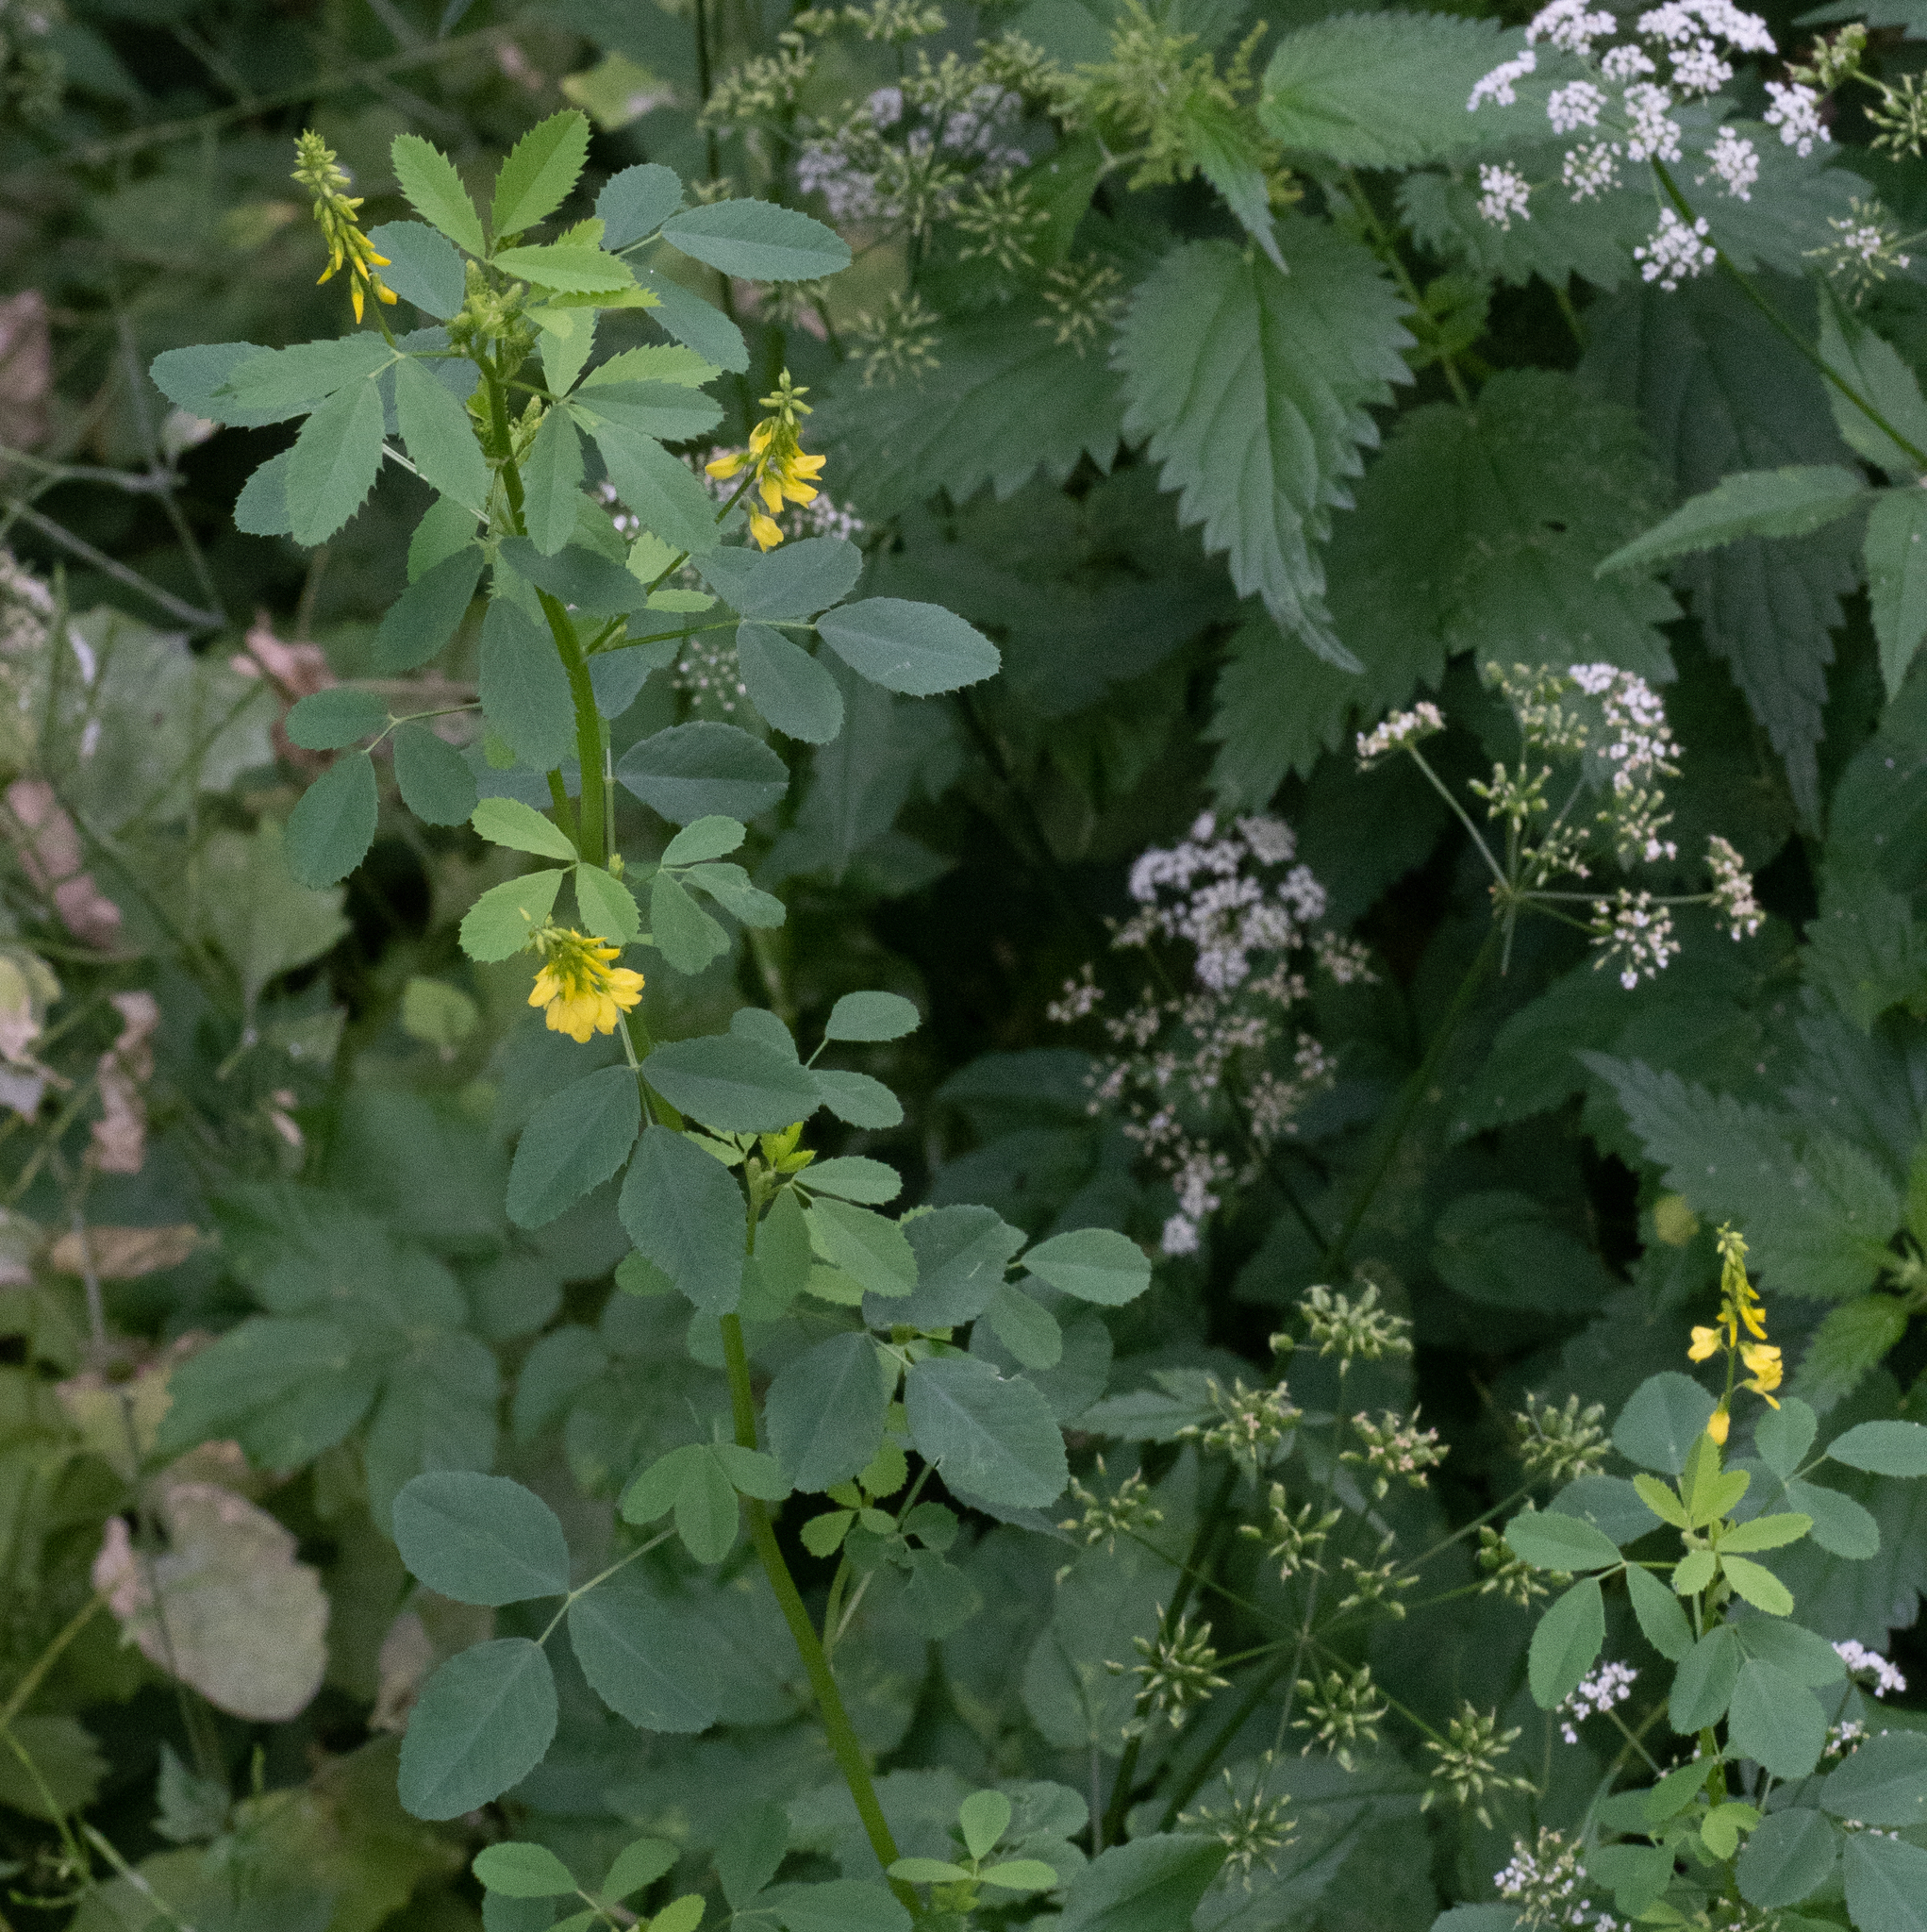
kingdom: Plantae
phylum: Tracheophyta
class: Magnoliopsida
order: Fabales
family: Fabaceae
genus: Melilotus
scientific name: Melilotus officinalis
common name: Sweetclover
